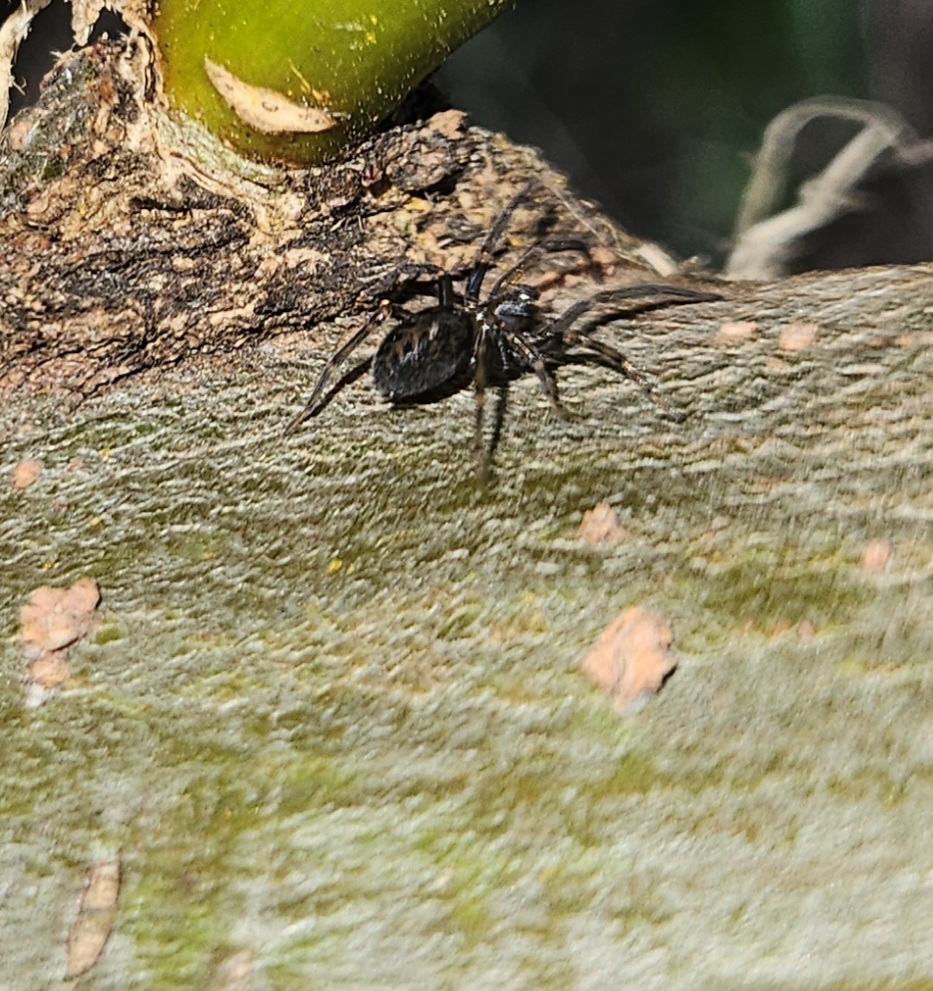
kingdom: Animalia
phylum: Arthropoda
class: Arachnida
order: Araneae
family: Desidae
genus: Metaltella
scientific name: Metaltella simoni
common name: Cribellate spider
